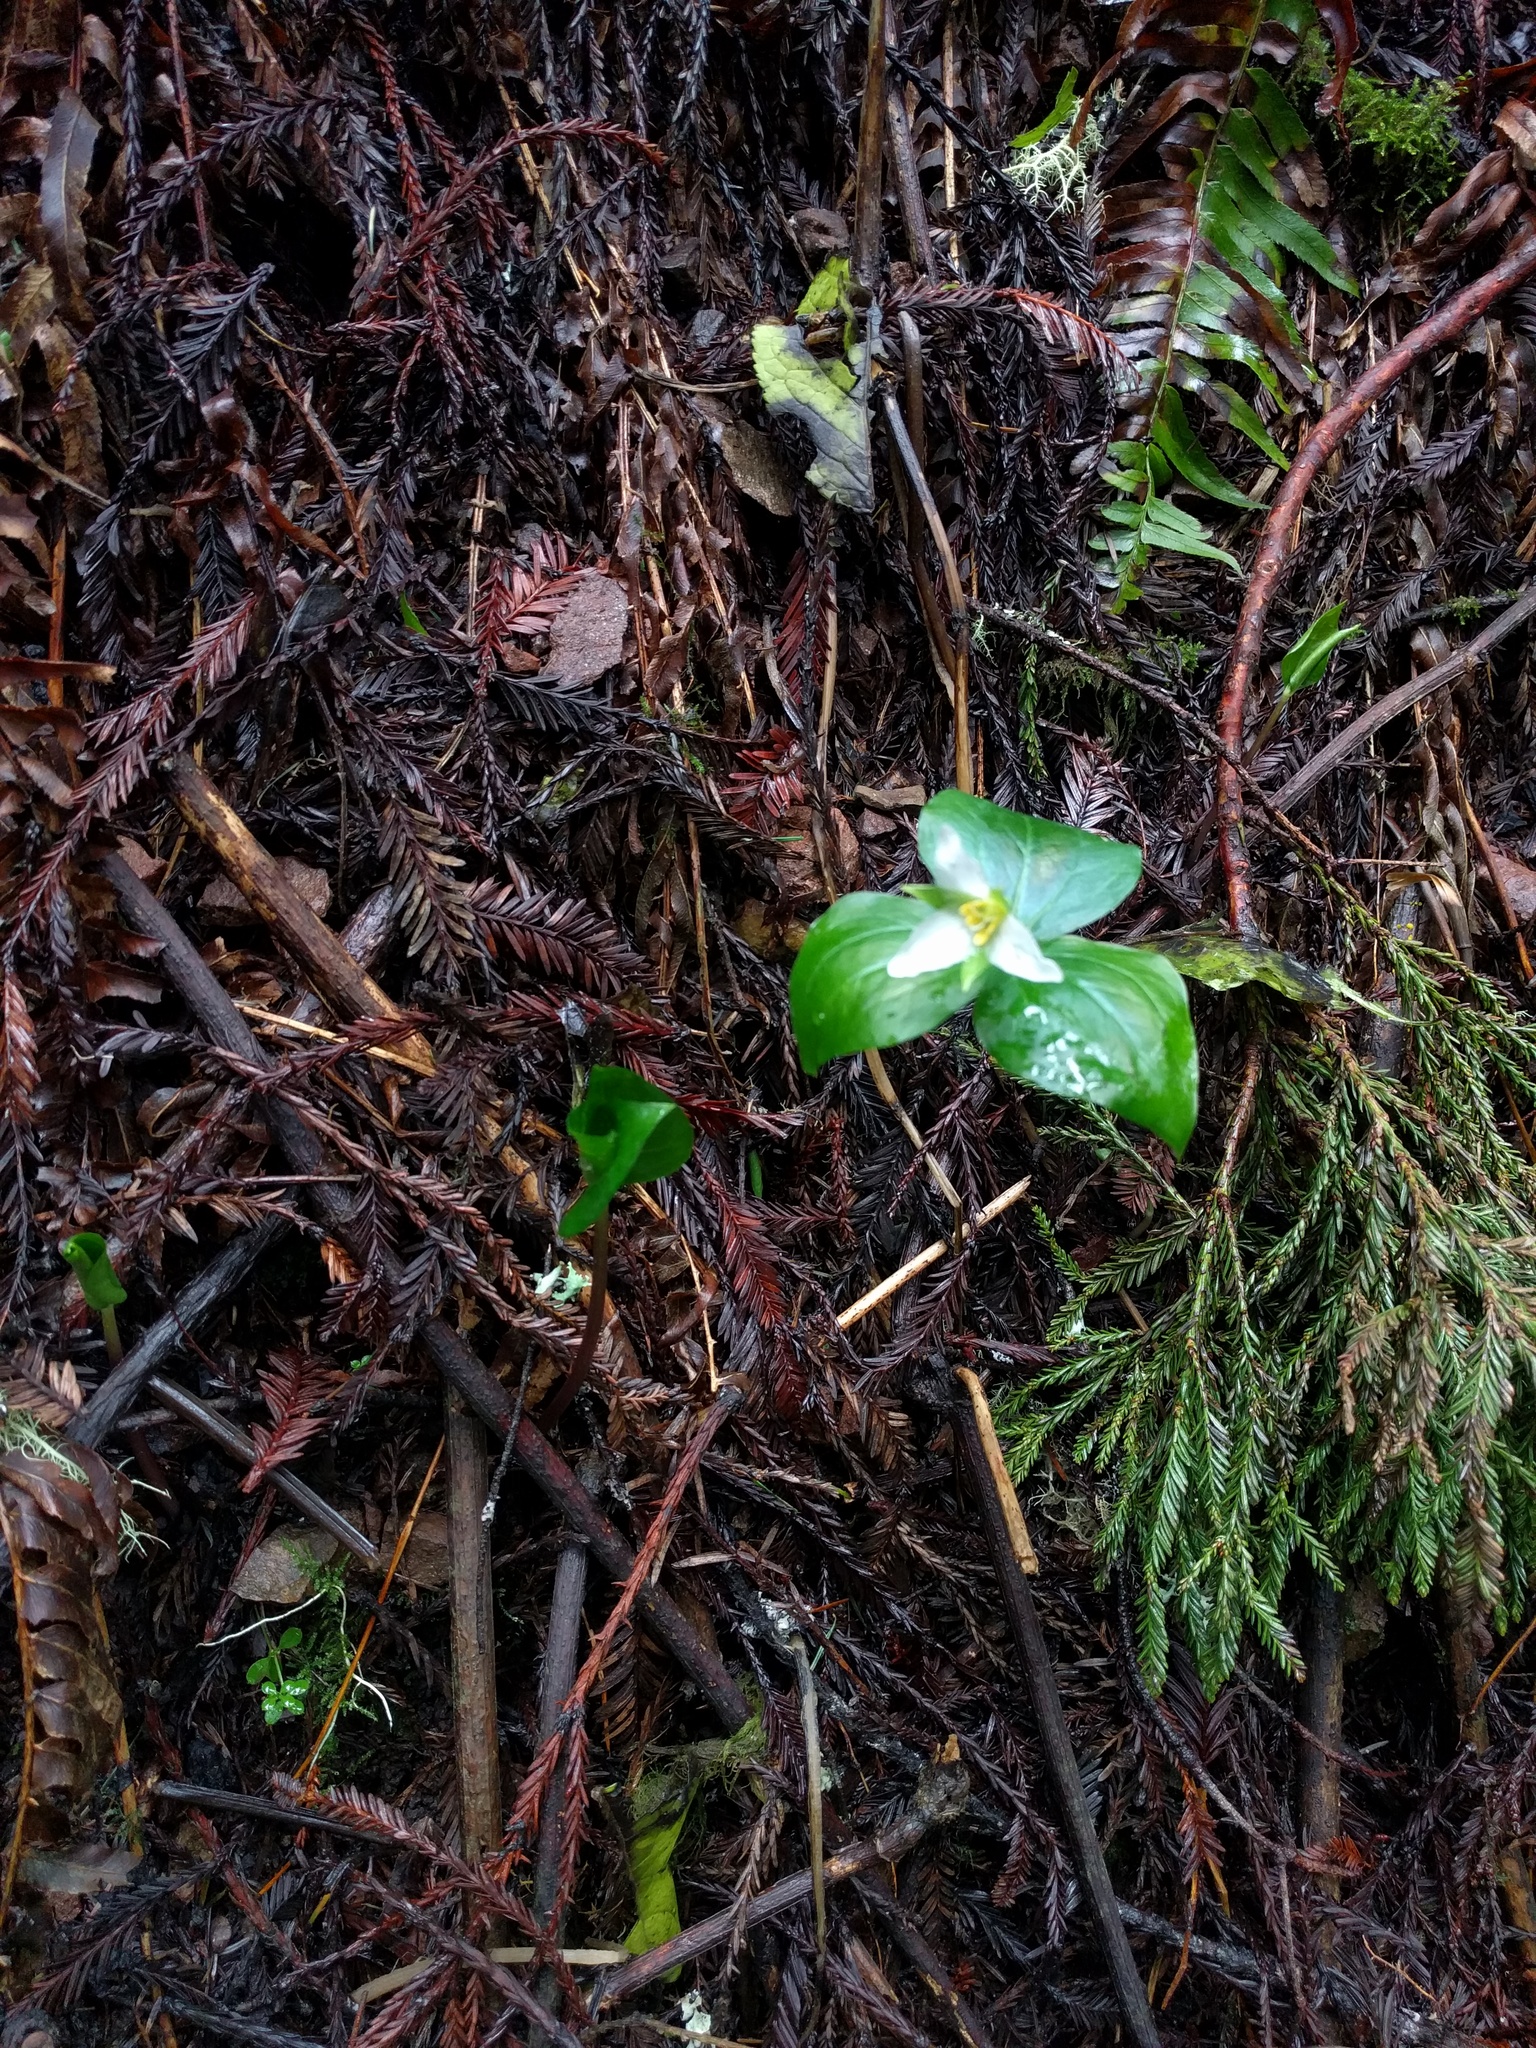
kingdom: Plantae
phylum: Tracheophyta
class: Liliopsida
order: Liliales
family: Melanthiaceae
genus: Trillium
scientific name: Trillium ovatum
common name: Pacific trillium
